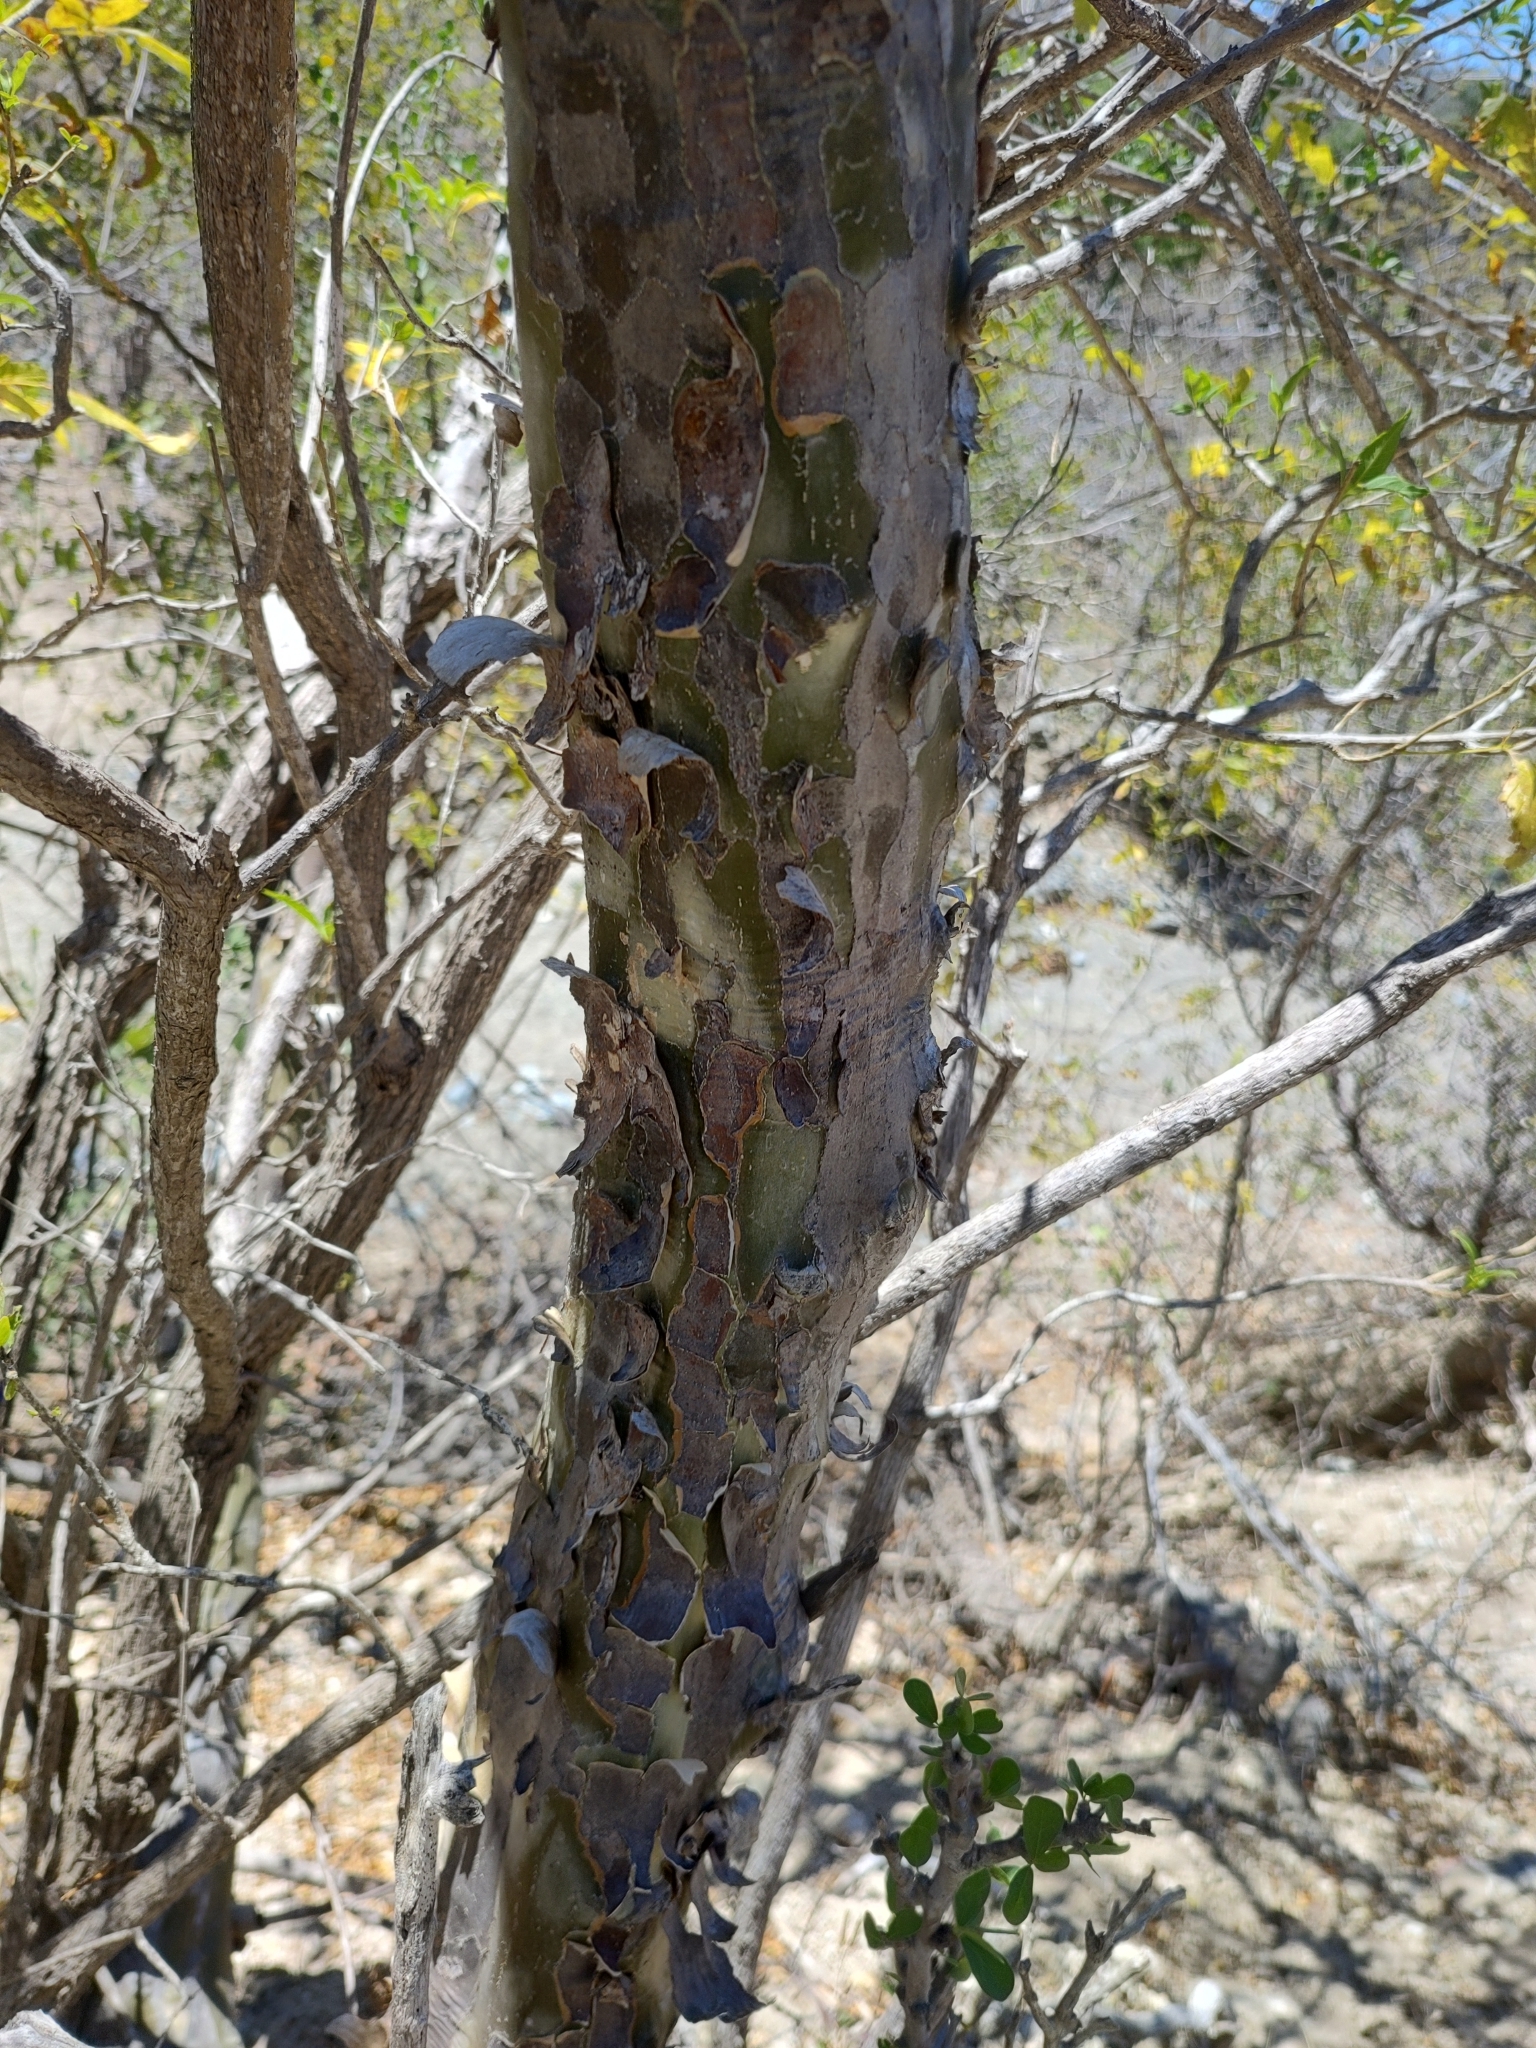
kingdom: Plantae
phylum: Tracheophyta
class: Magnoliopsida
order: Malpighiales
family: Euphorbiaceae
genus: Adelia
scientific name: Adelia brandegeei
